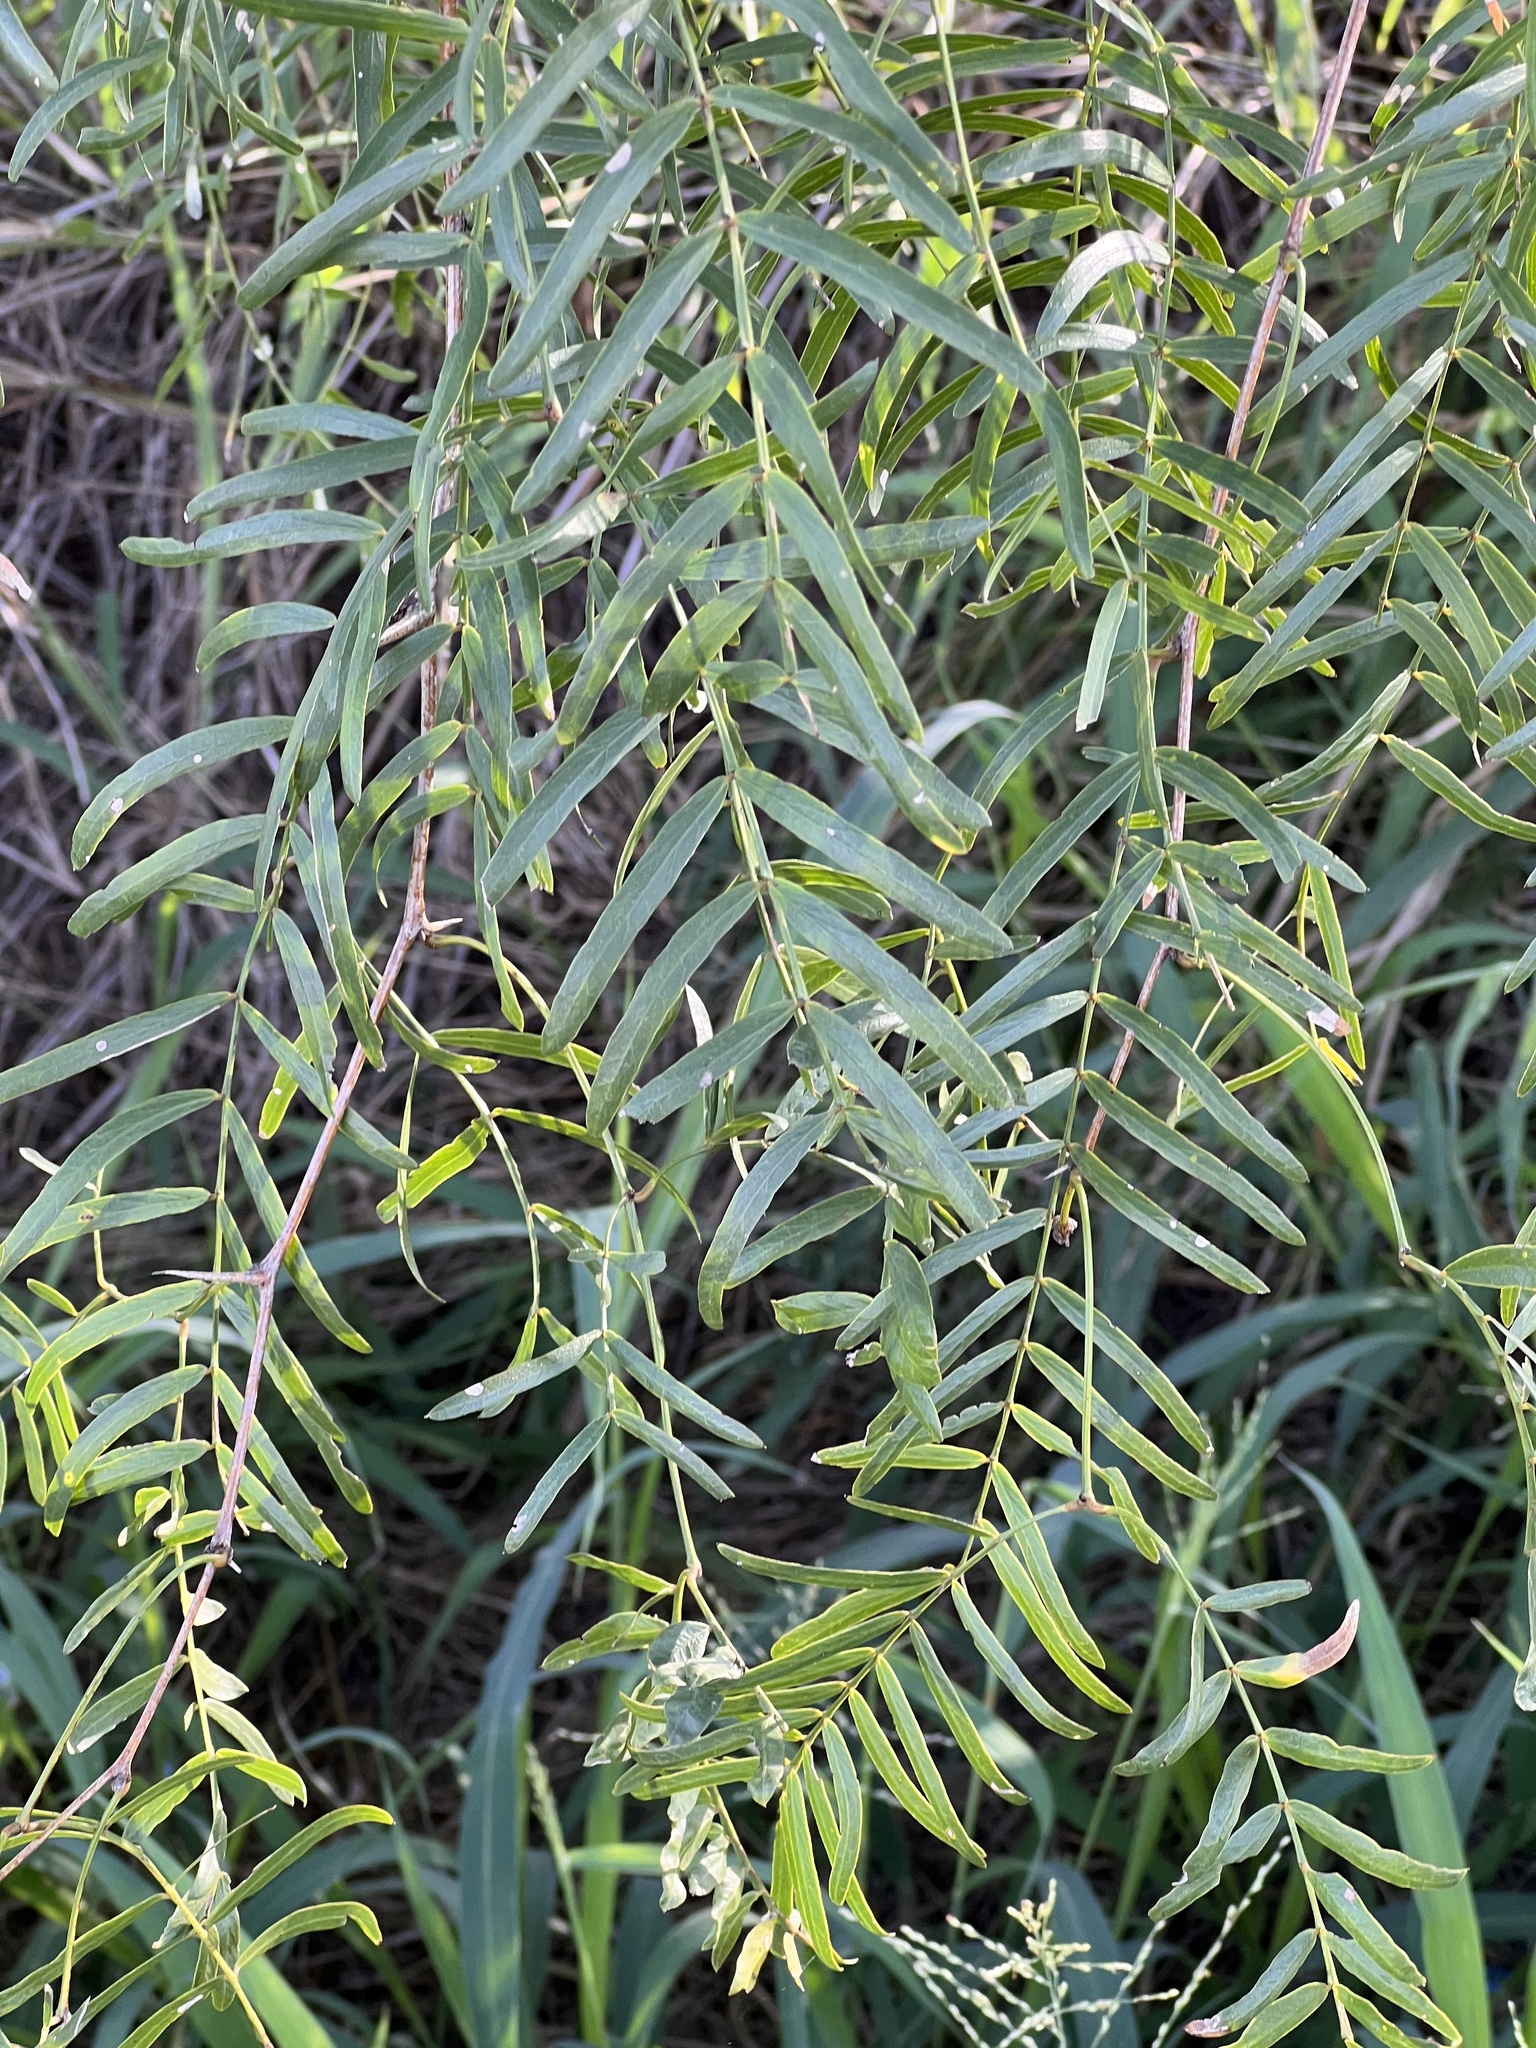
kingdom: Plantae
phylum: Tracheophyta
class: Magnoliopsida
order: Fabales
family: Fabaceae
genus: Prosopis
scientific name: Prosopis glandulosa
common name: Honey mesquite
